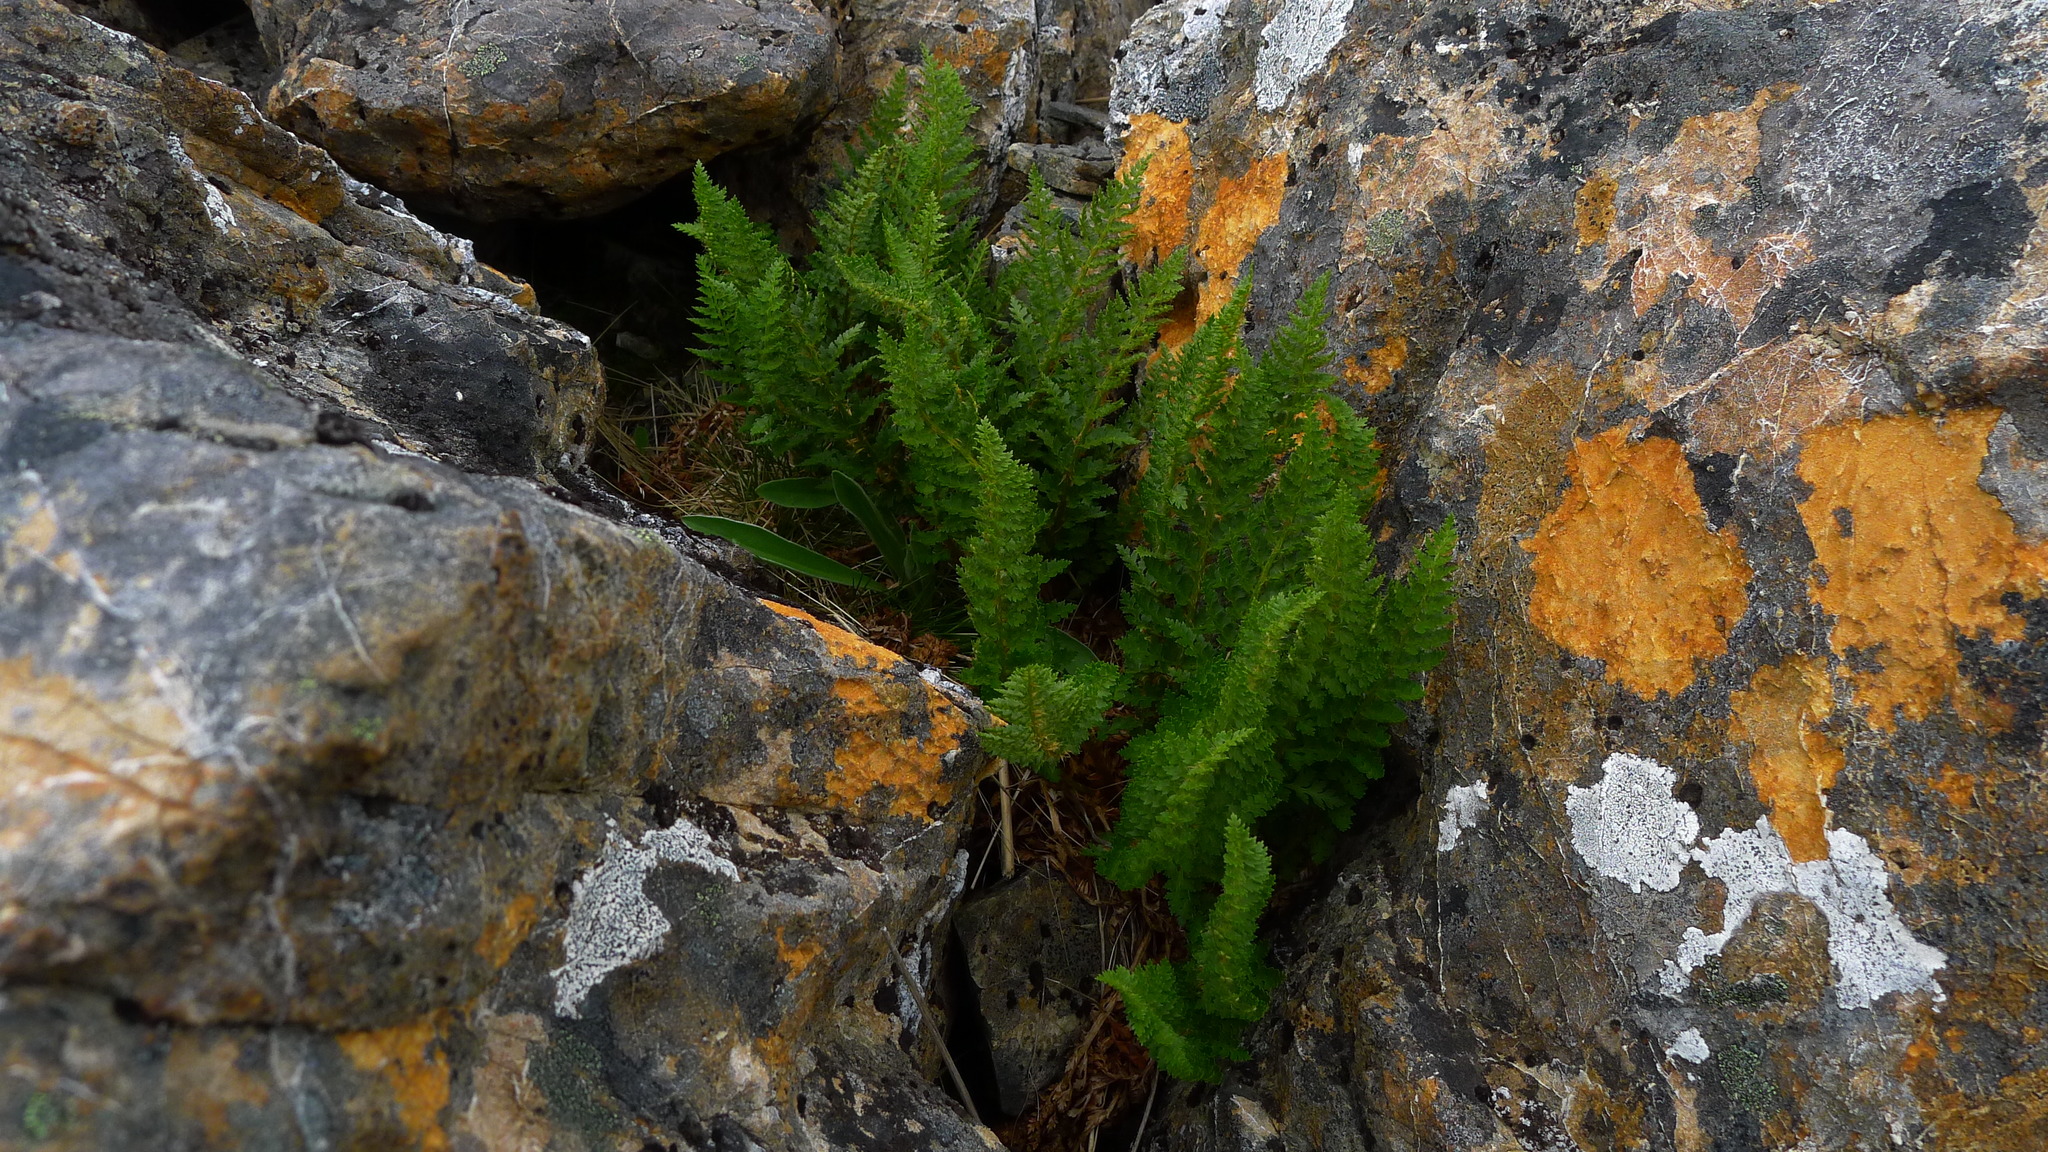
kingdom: Plantae
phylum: Tracheophyta
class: Polypodiopsida
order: Polypodiales
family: Dryopteridaceae
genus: Polystichum
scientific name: Polystichum cystostegia
